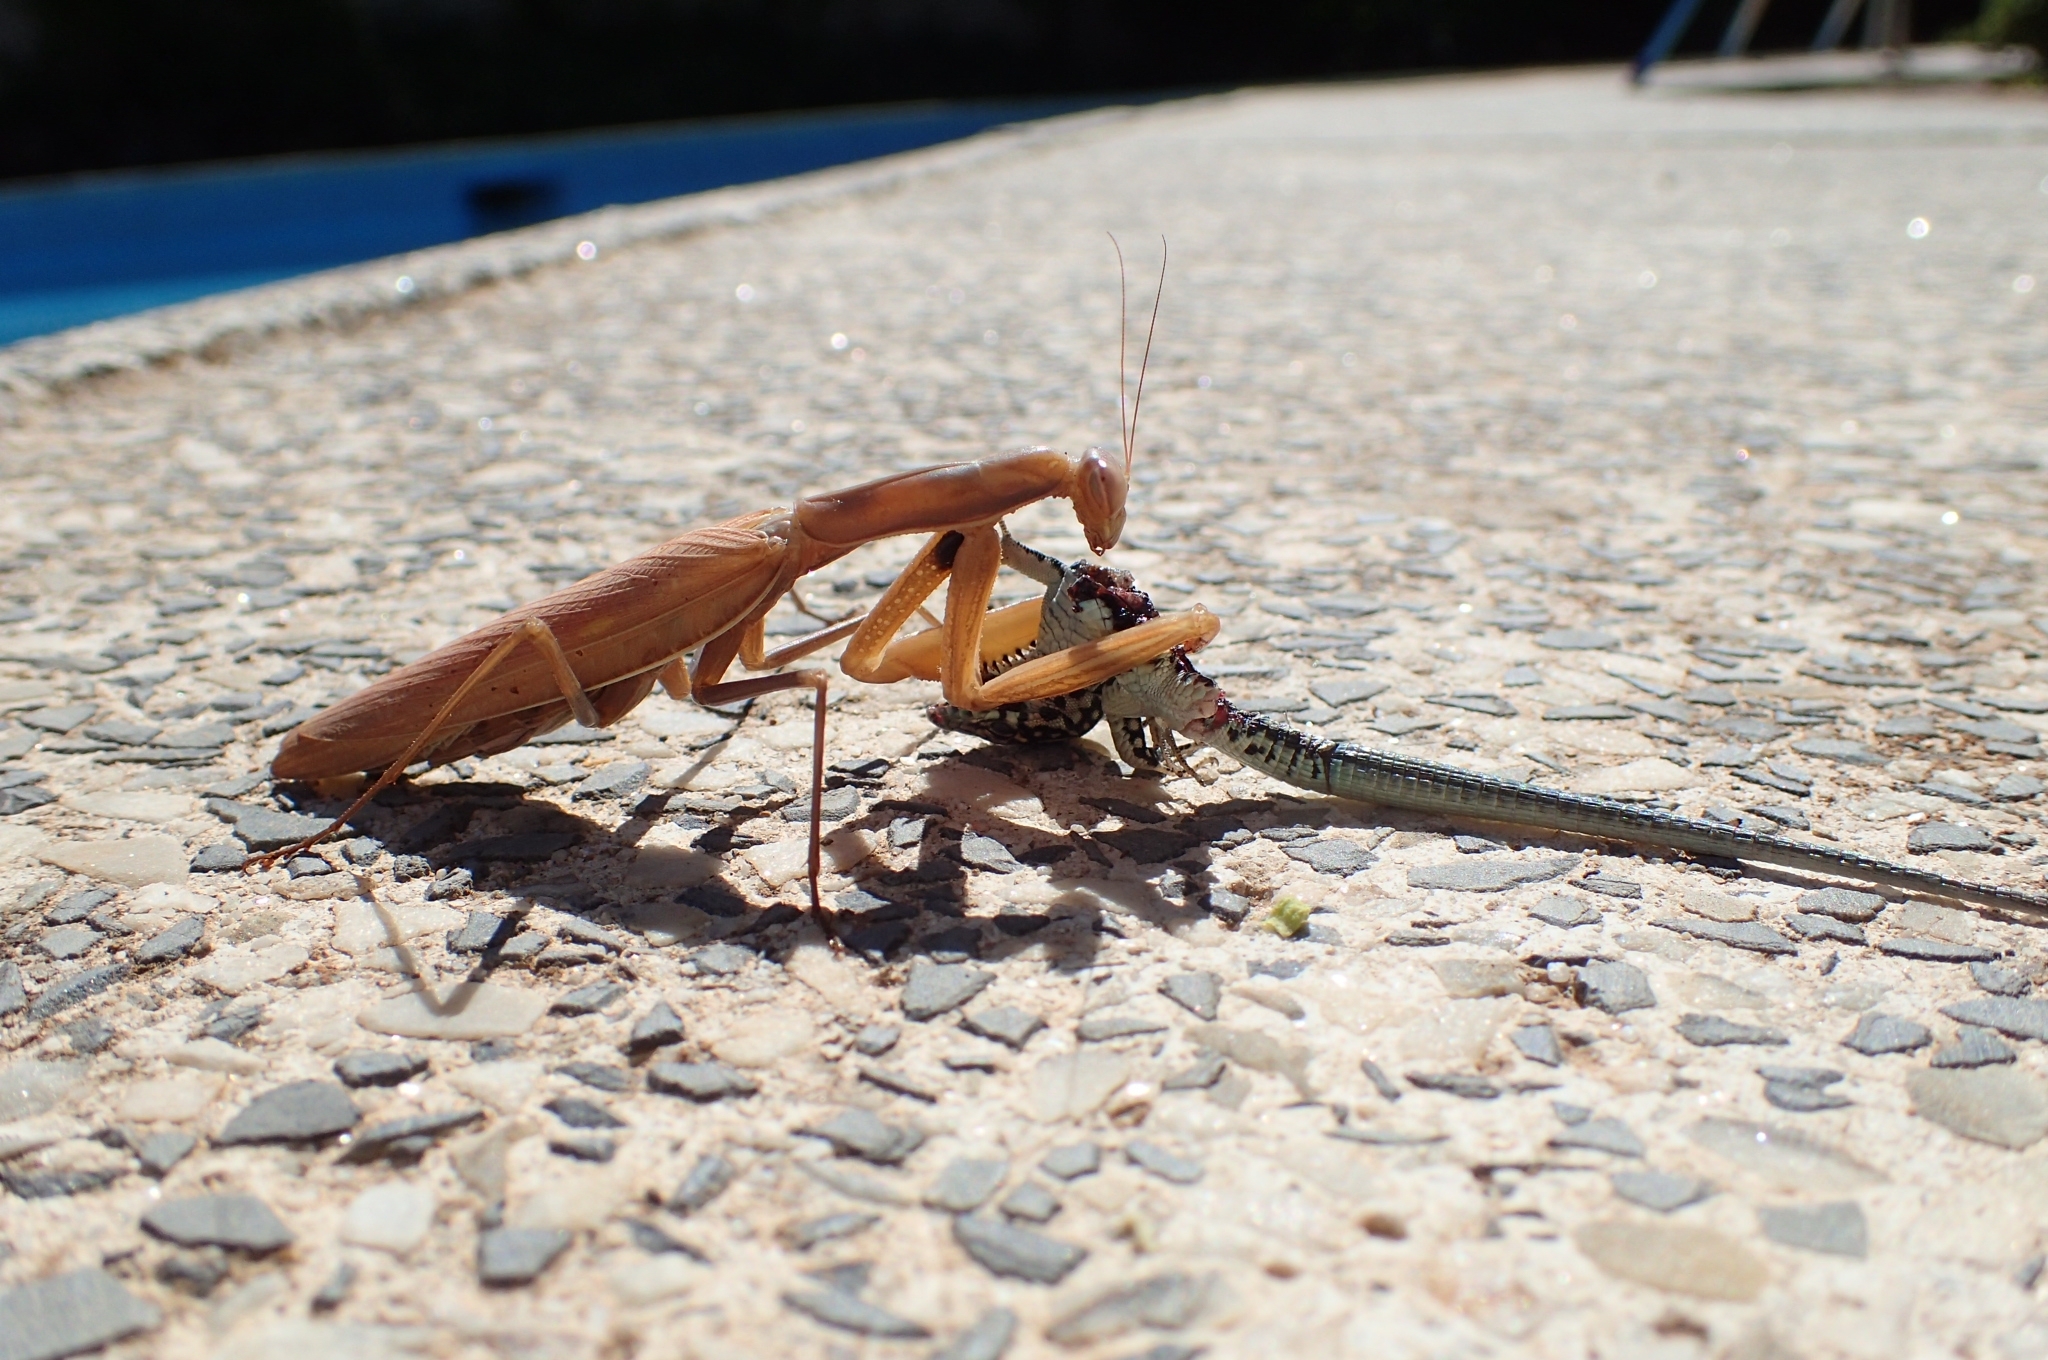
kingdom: Animalia
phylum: Arthropoda
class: Insecta
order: Mantodea
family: Mantidae
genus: Mantis
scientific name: Mantis religiosa
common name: Praying mantis
